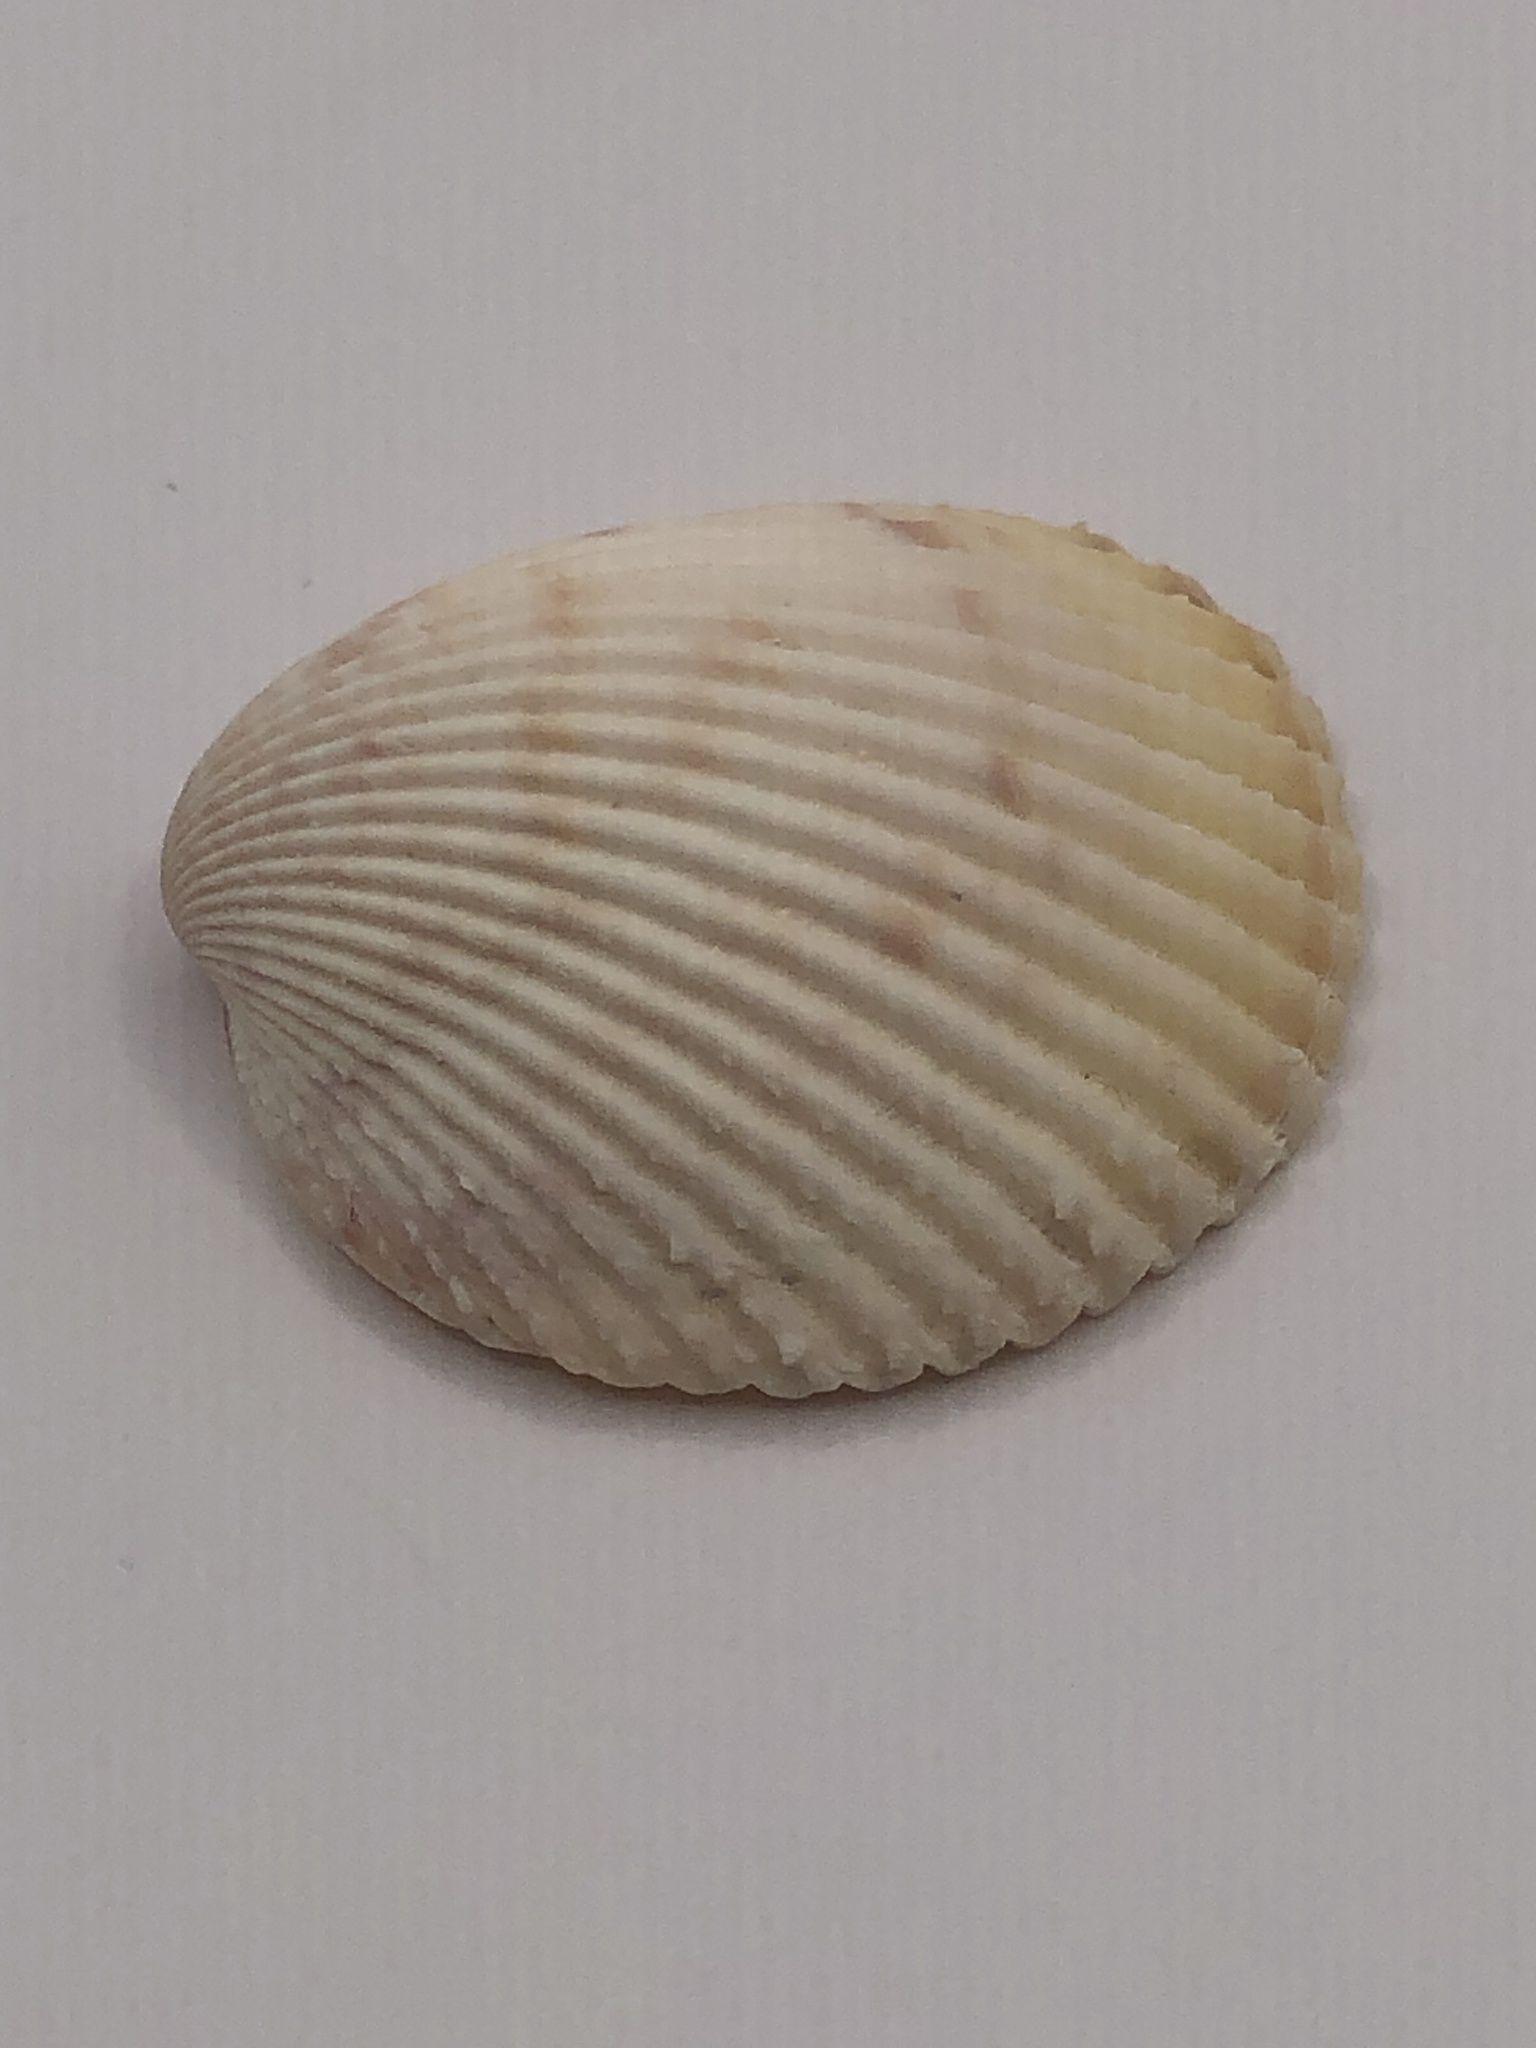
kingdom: Animalia
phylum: Mollusca
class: Bivalvia
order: Cardiida
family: Cardiidae
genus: Dallocardia
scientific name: Dallocardia muricata
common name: Yellow pricklycockle
